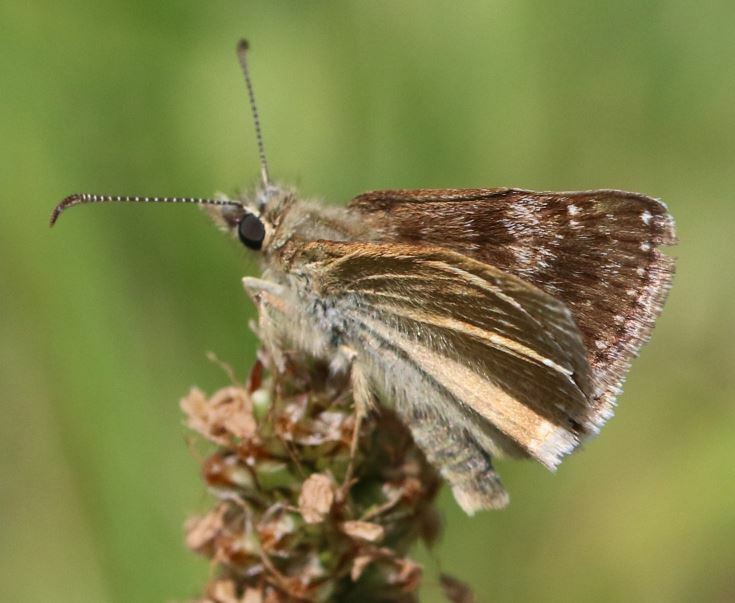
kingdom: Animalia
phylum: Arthropoda
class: Insecta
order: Lepidoptera
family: Hesperiidae
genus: Erynnis
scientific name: Erynnis tages
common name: Dingy skipper
